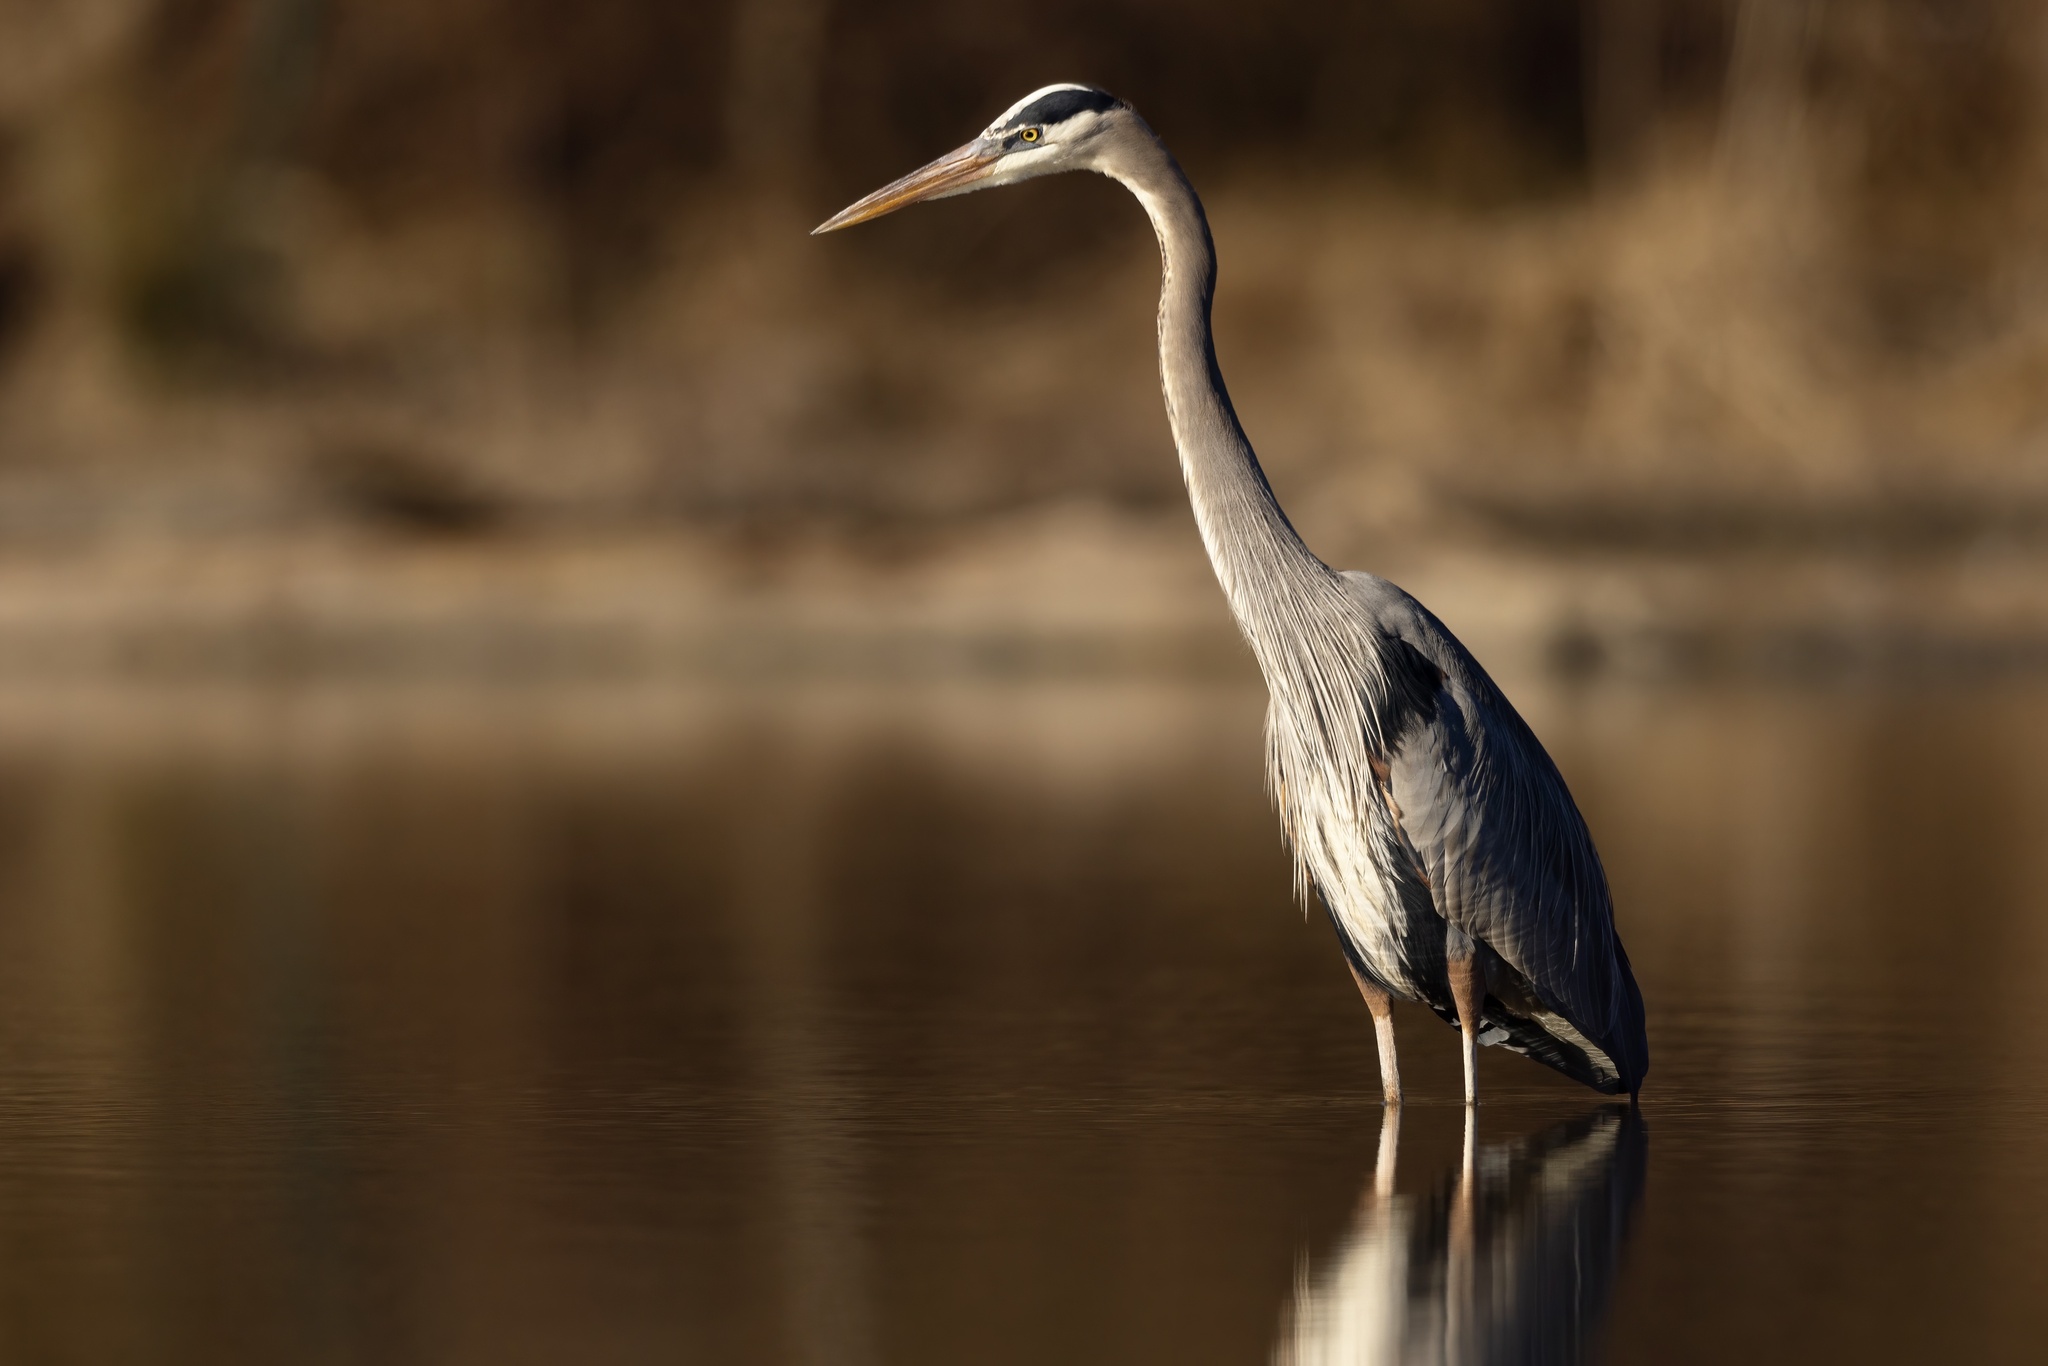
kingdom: Animalia
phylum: Chordata
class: Aves
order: Pelecaniformes
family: Ardeidae
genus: Ardea
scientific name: Ardea herodias
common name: Great blue heron
